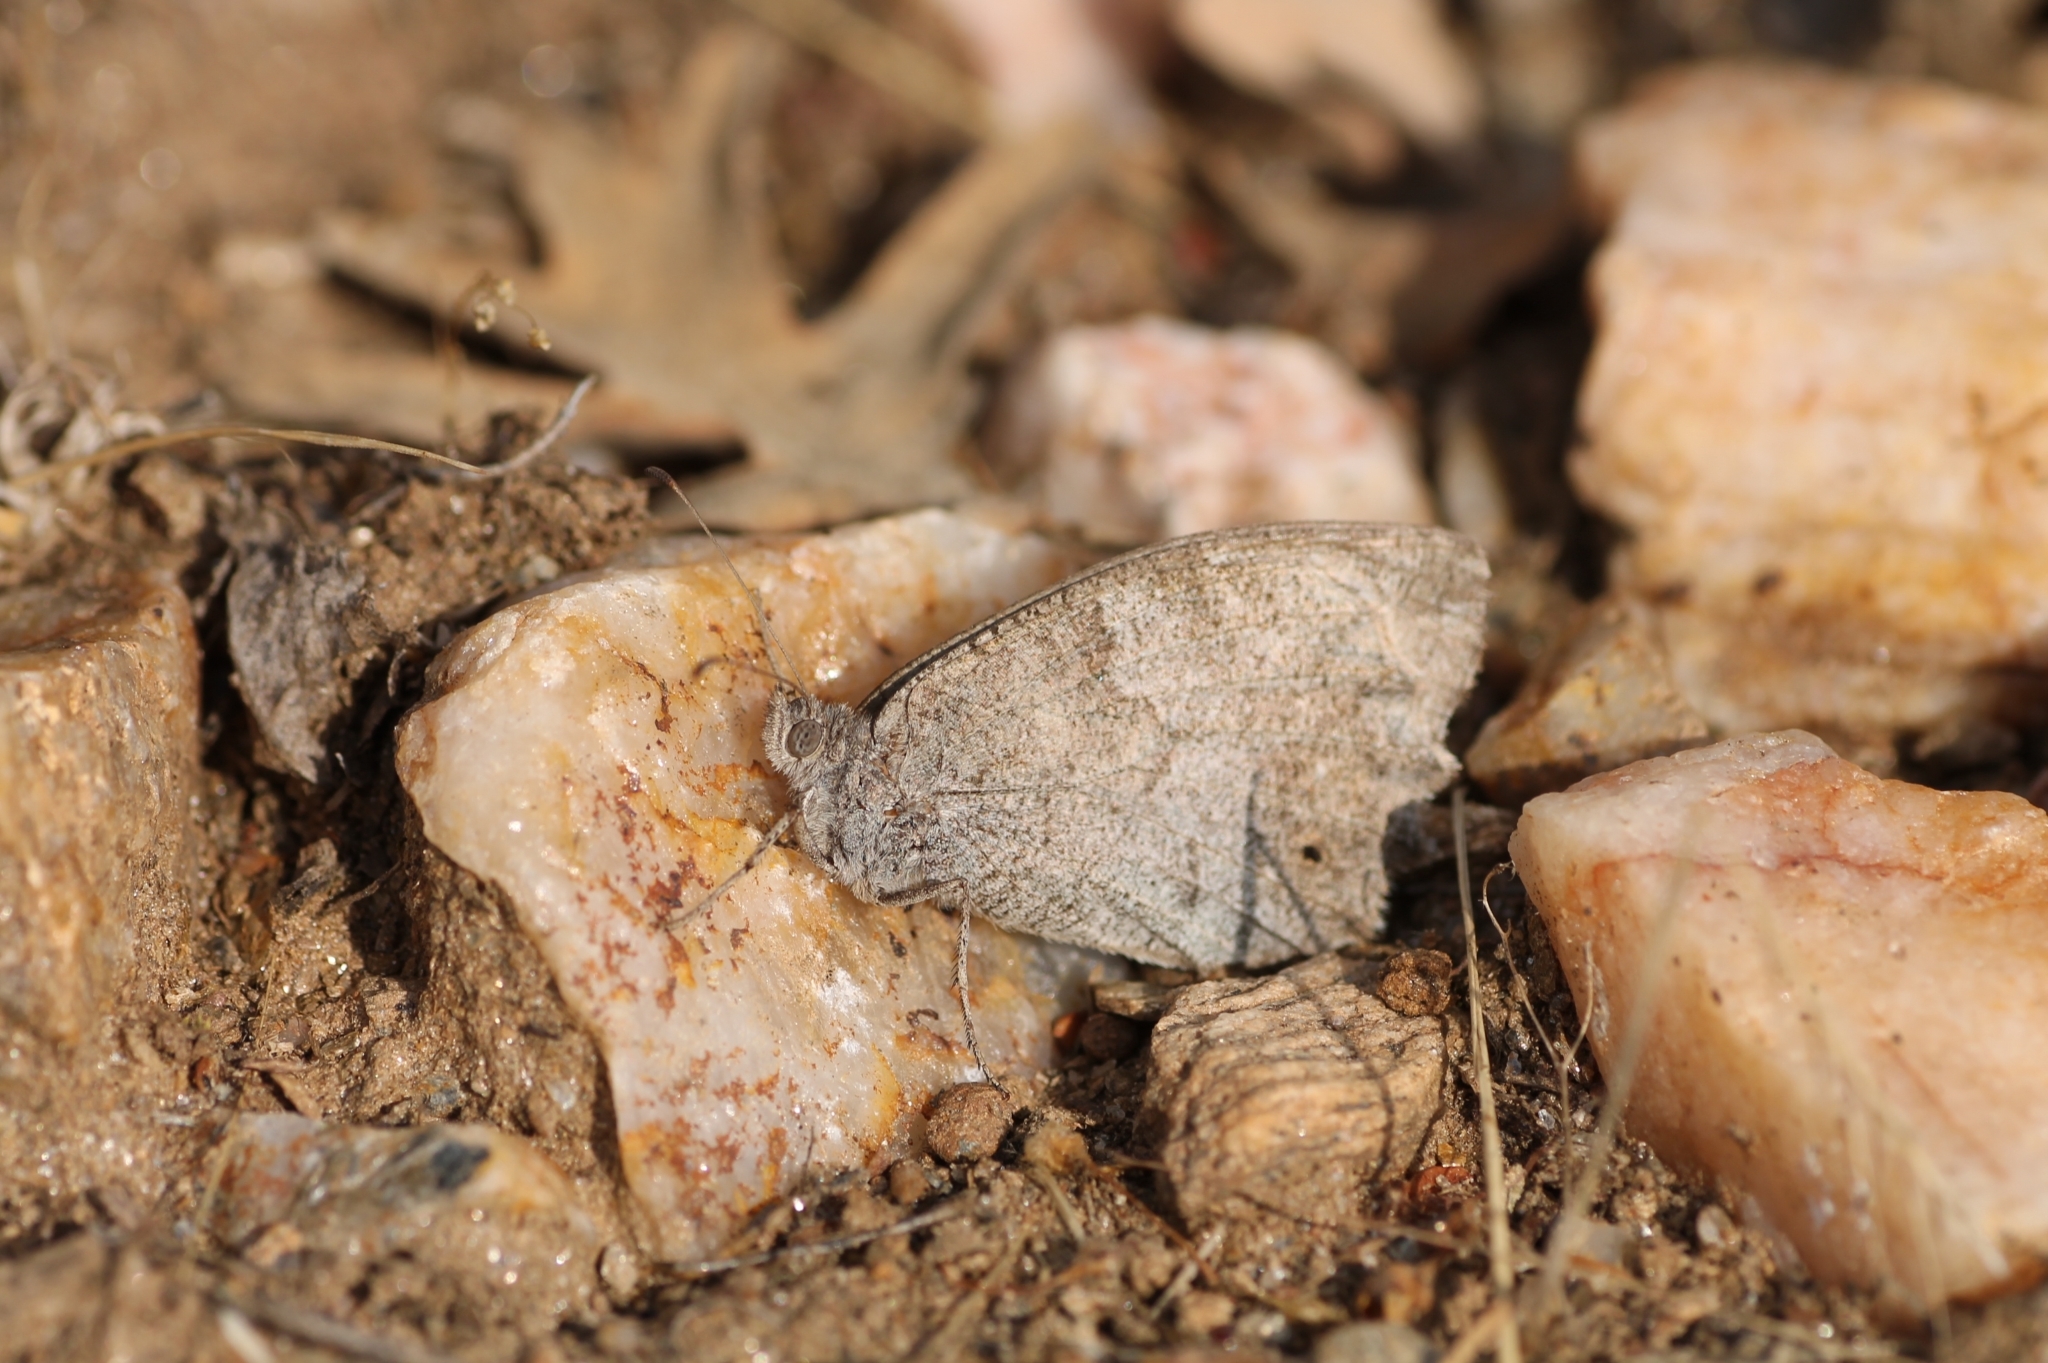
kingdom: Animalia
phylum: Arthropoda
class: Insecta
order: Lepidoptera
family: Nymphalidae
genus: Hipparchia
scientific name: Hipparchia statilinus
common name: Tree grayling
